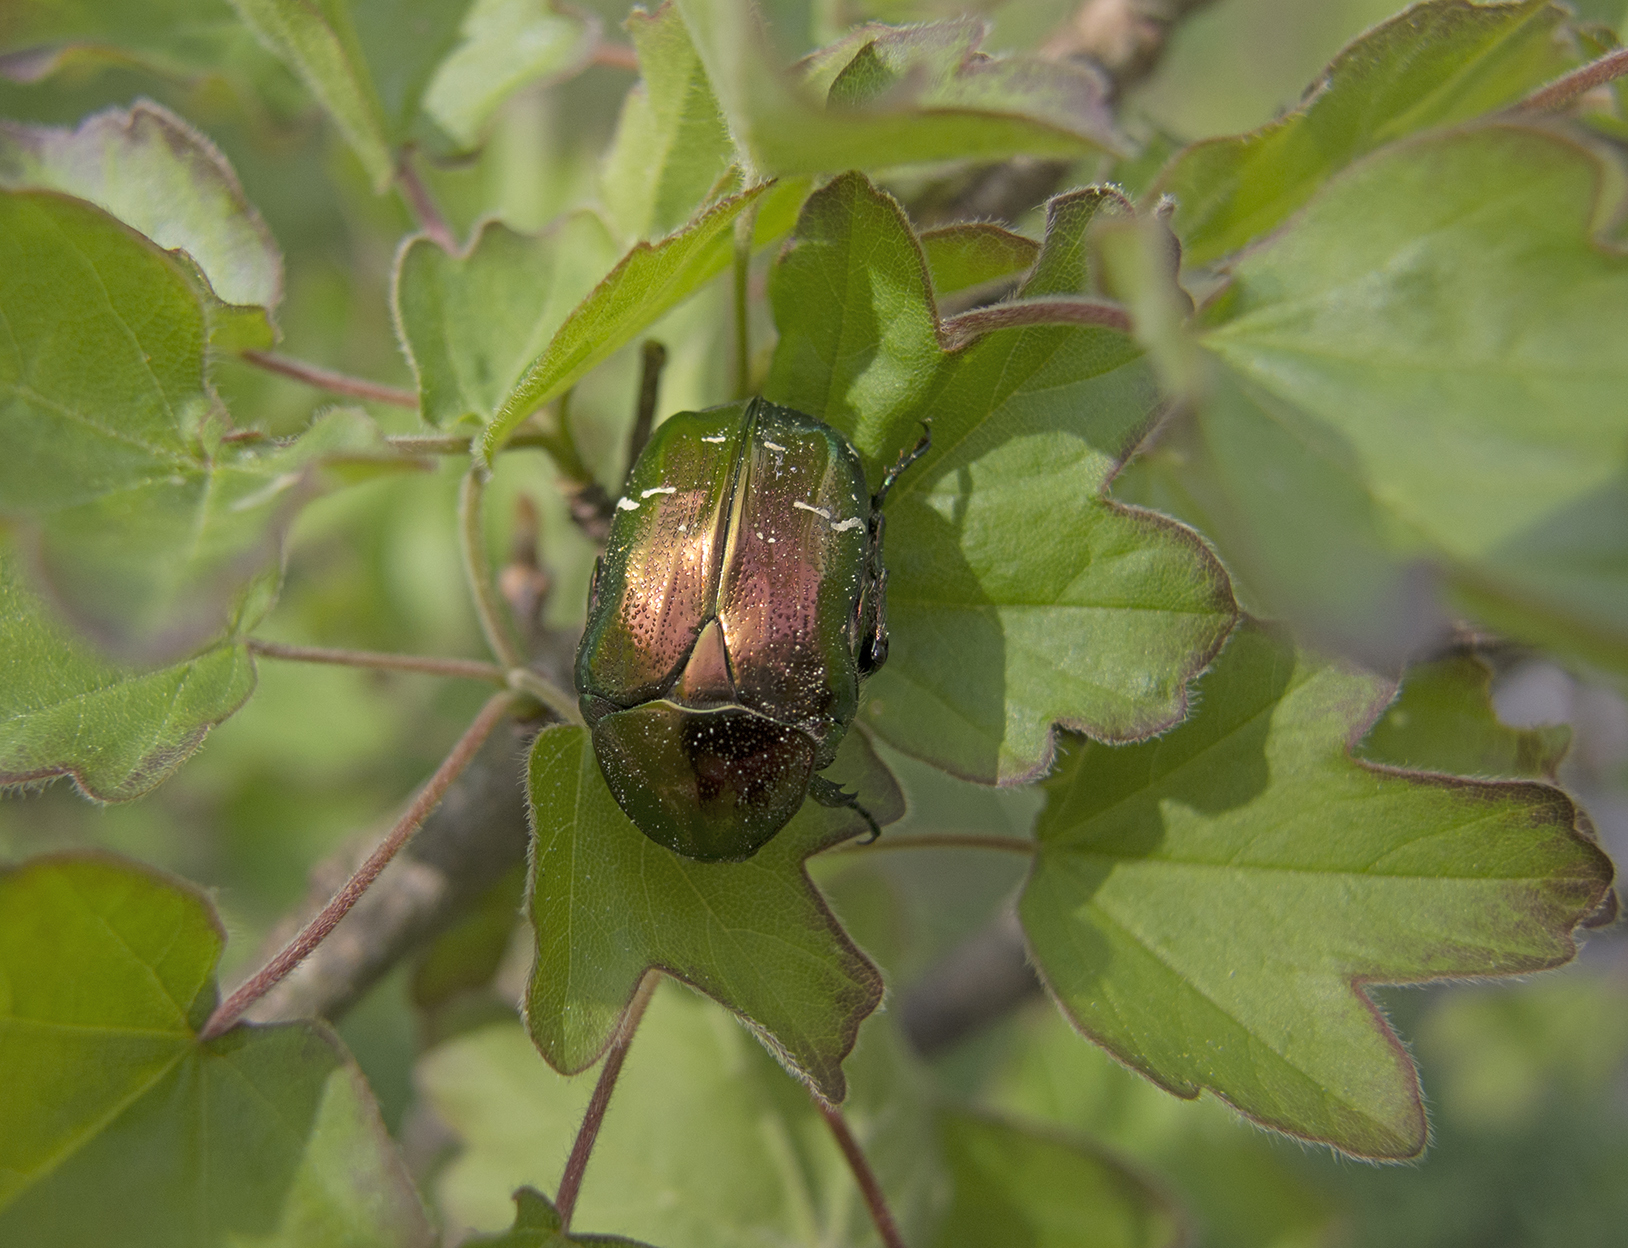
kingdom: Animalia
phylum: Arthropoda
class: Insecta
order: Coleoptera
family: Scarabaeidae
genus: Cetonia
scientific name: Cetonia aurata
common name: Rose chafer
